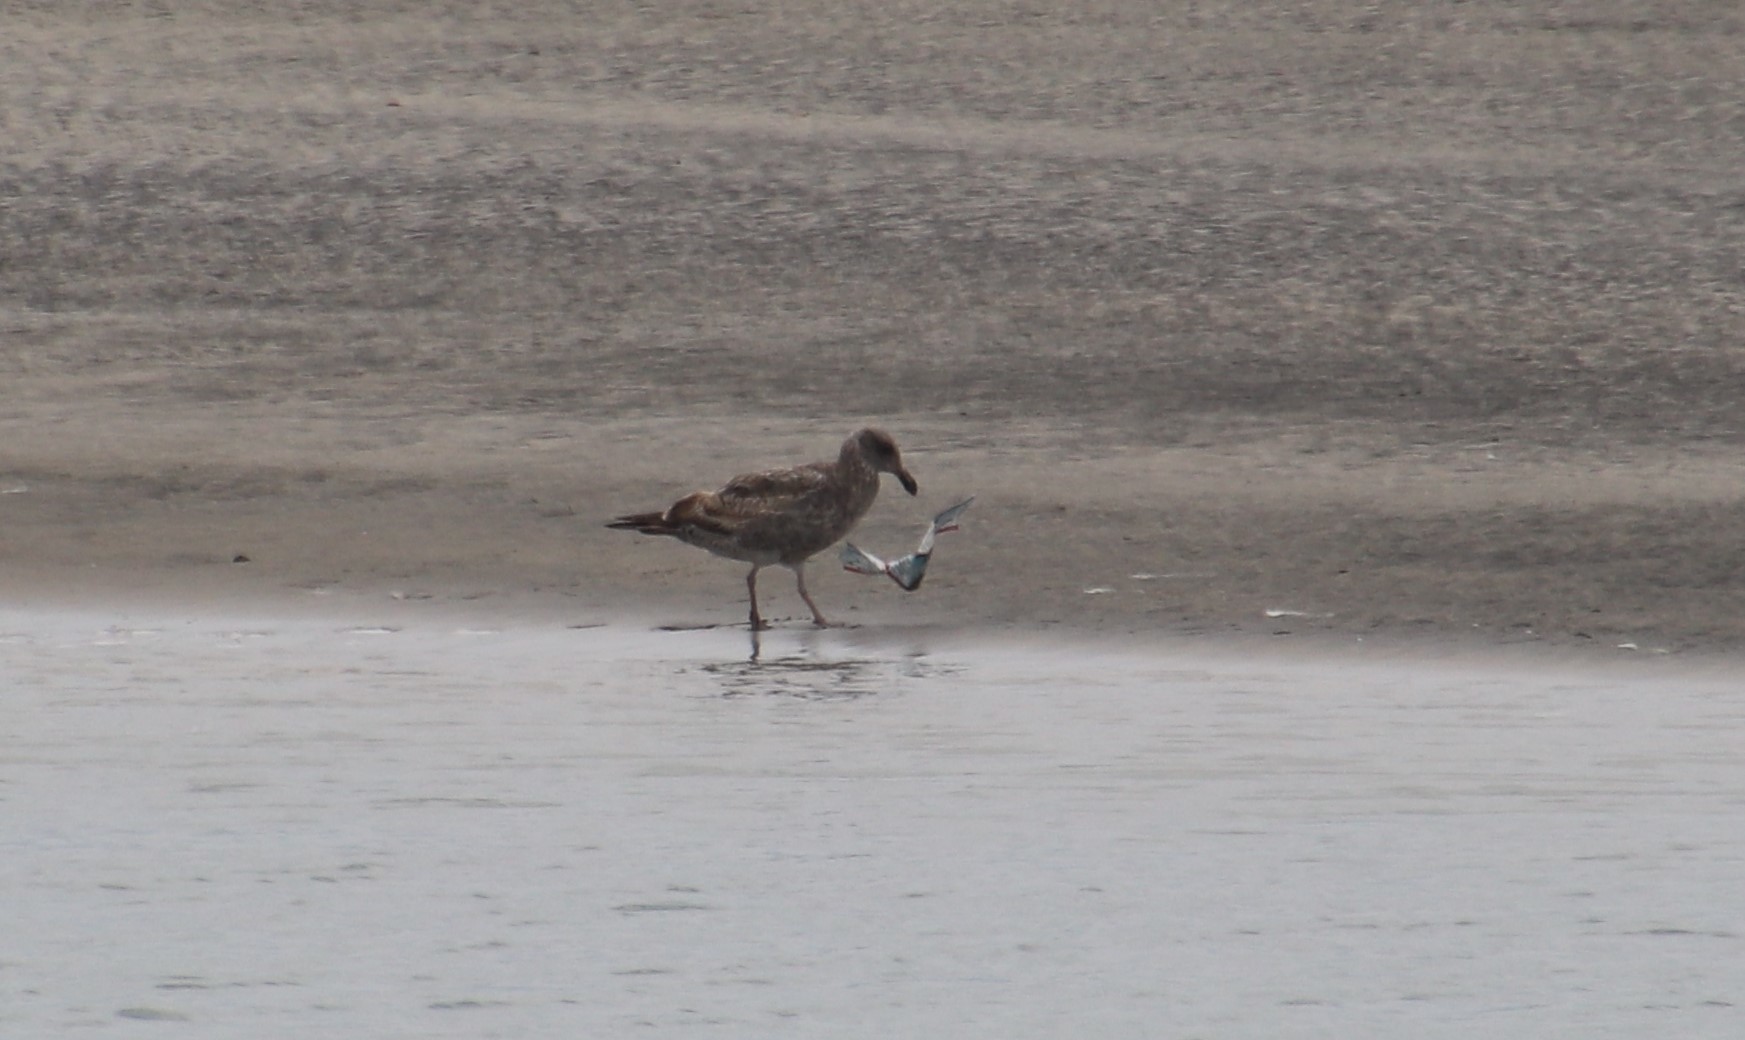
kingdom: Animalia
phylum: Chordata
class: Aves
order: Charadriiformes
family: Laridae
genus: Larus
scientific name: Larus occidentalis
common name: Western gull
